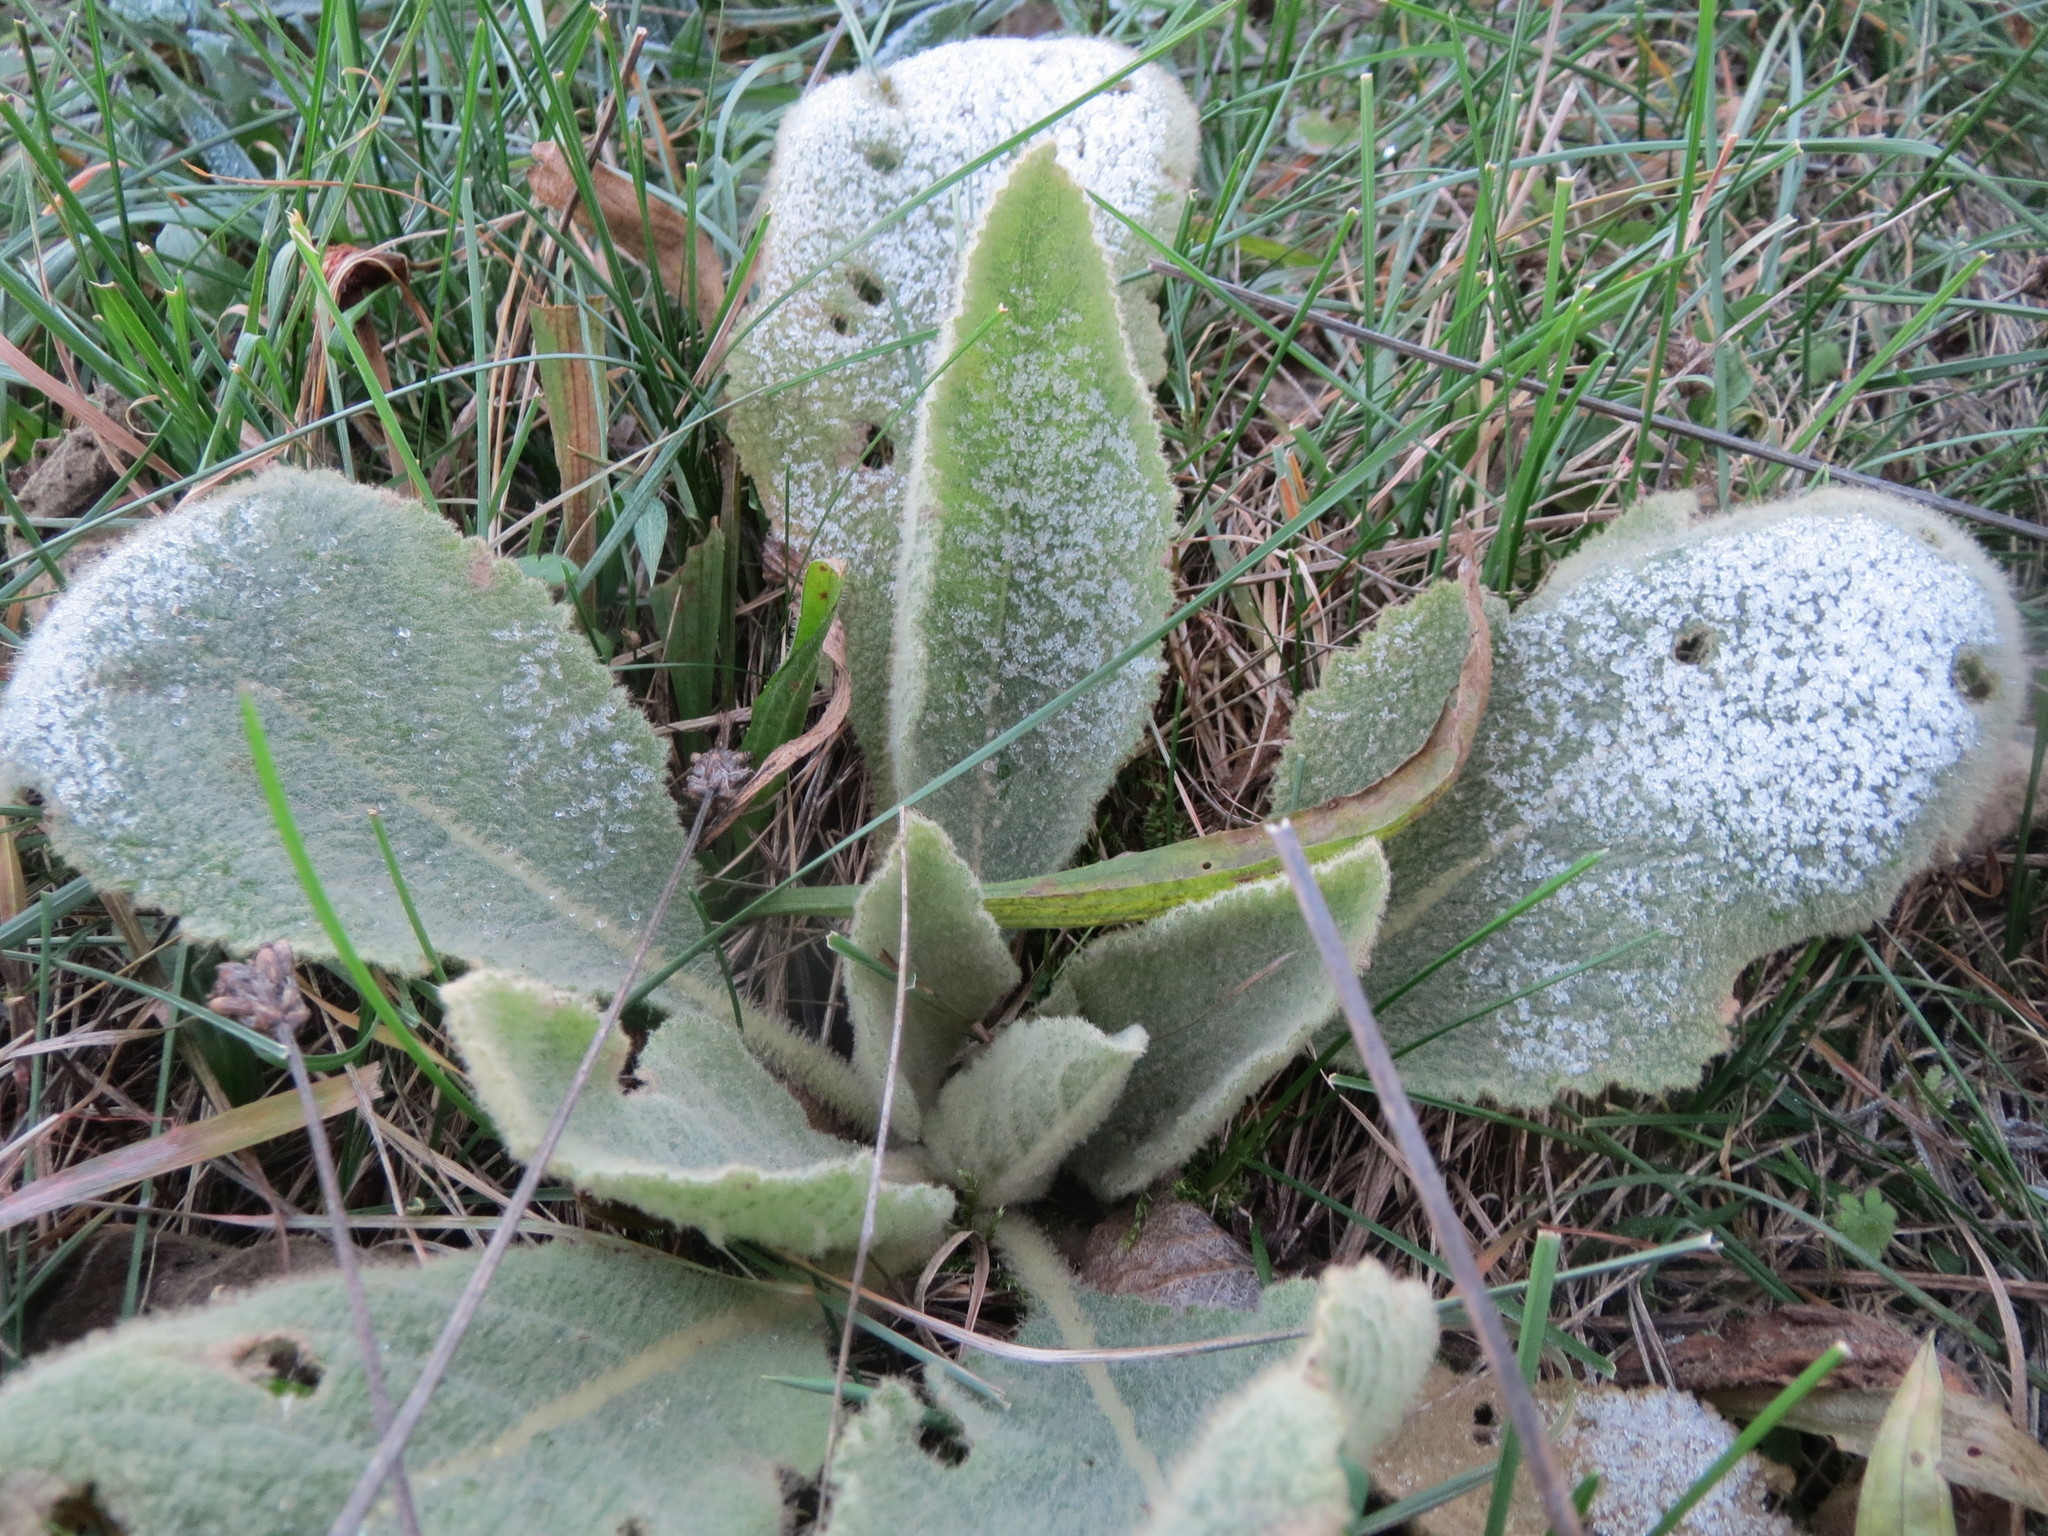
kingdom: Plantae
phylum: Tracheophyta
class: Magnoliopsida
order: Lamiales
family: Scrophulariaceae
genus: Verbascum
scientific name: Verbascum thapsus
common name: Common mullein
